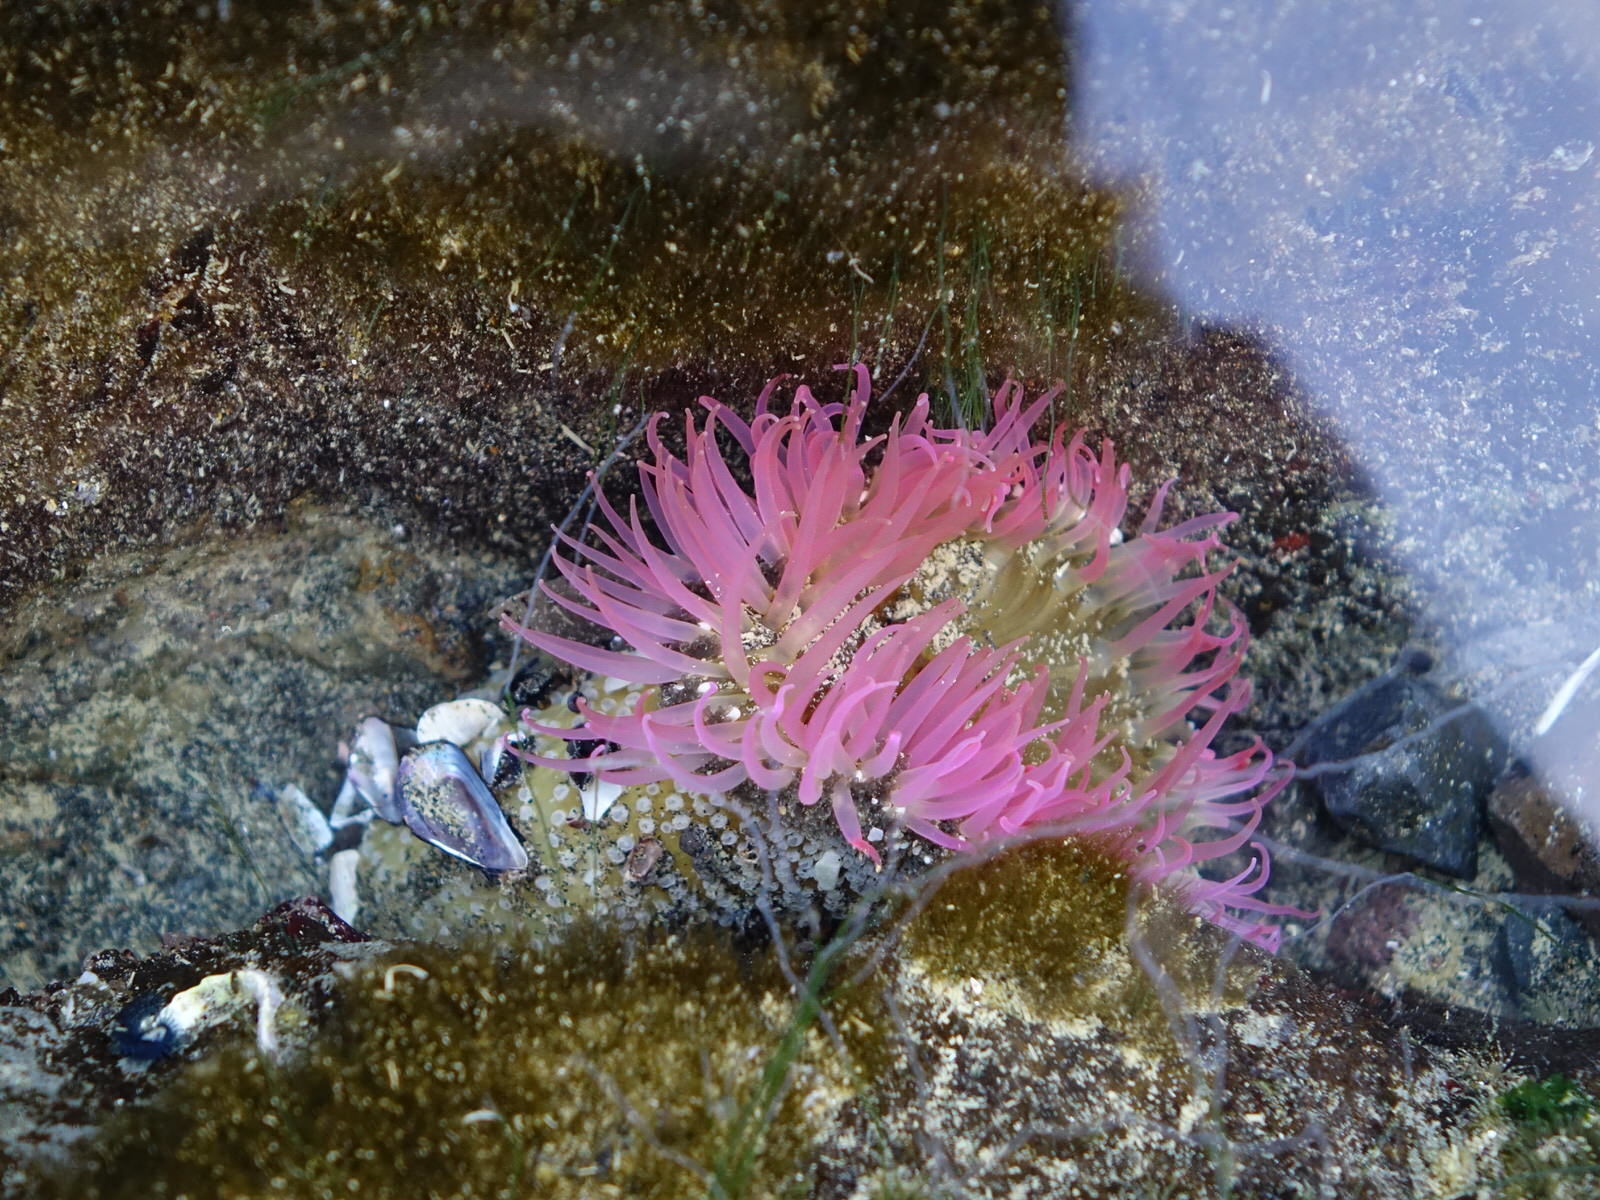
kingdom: Animalia
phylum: Cnidaria
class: Anthozoa
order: Actiniaria
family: Actiniidae
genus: Oulactis
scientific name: Oulactis magna
